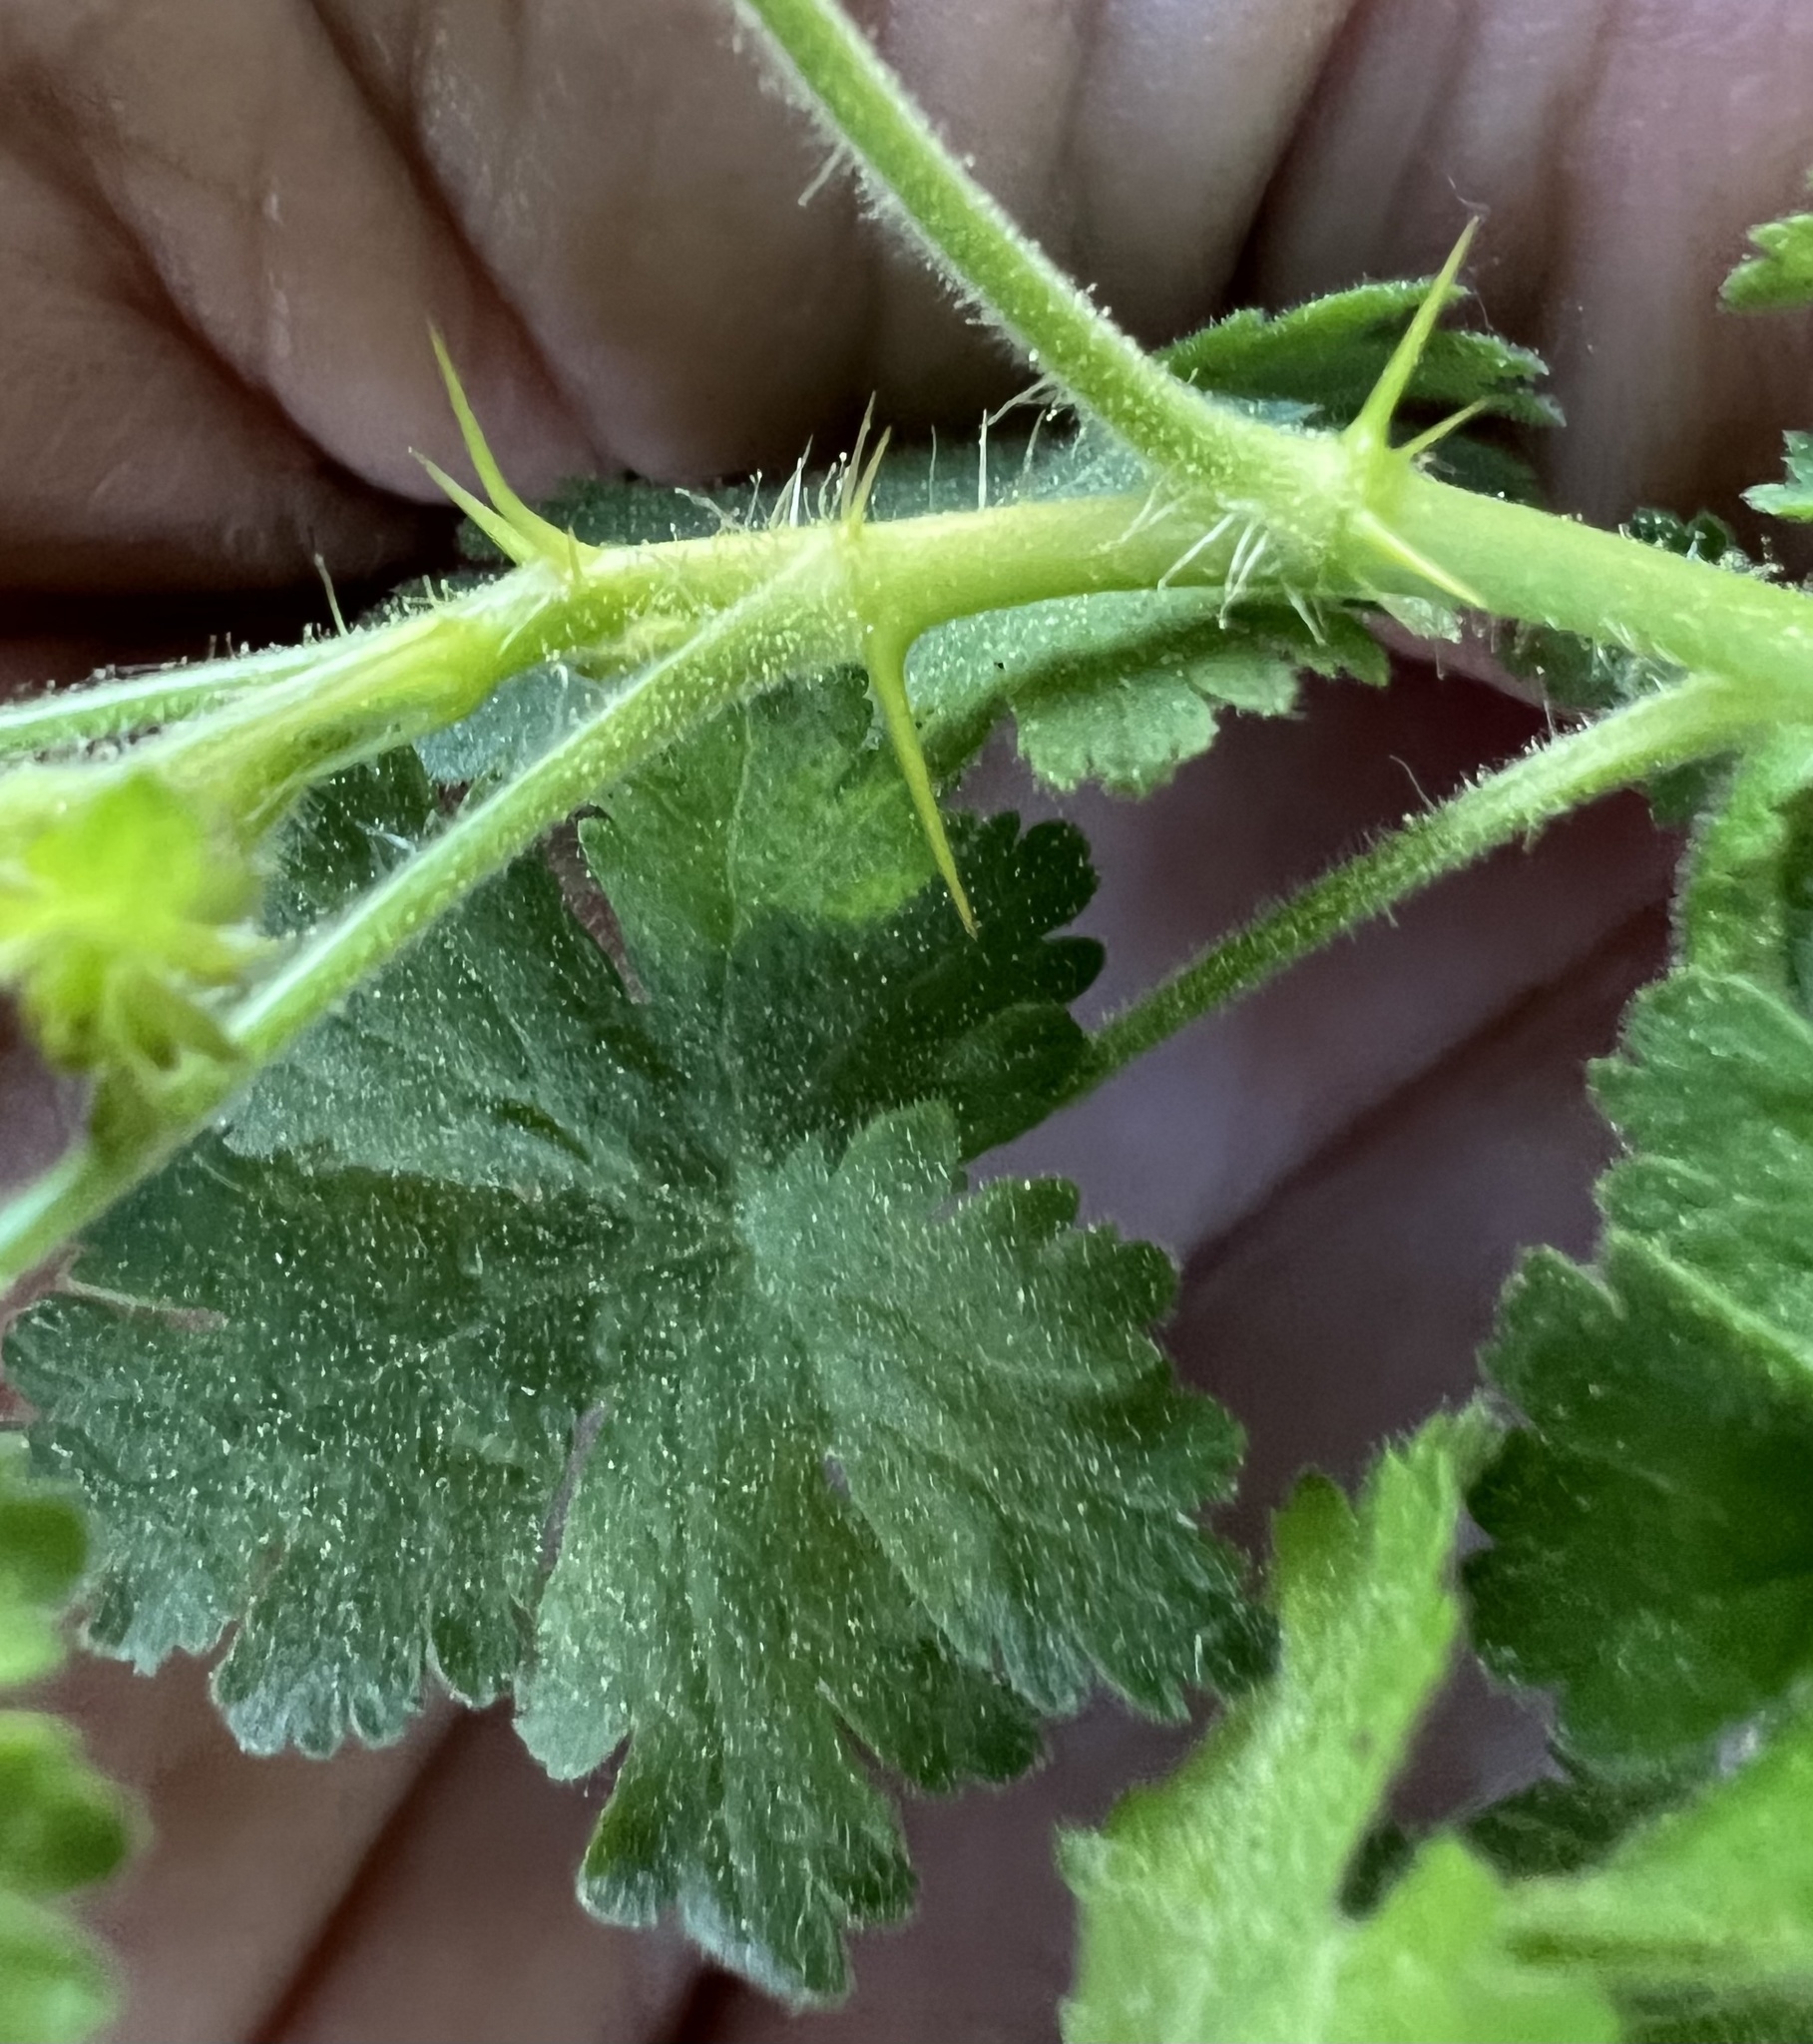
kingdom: Plantae
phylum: Tracheophyta
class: Magnoliopsida
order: Saxifragales
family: Grossulariaceae
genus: Ribes
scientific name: Ribes montigenum
